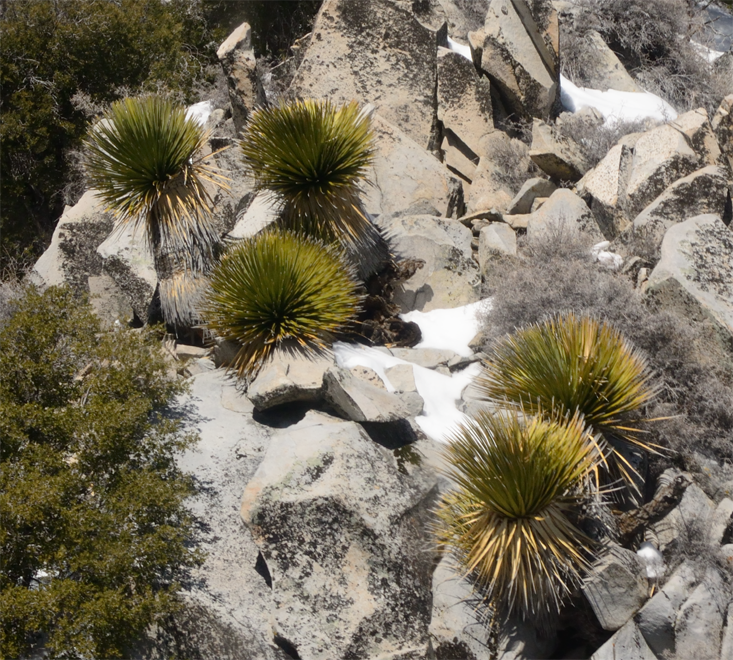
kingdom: Plantae
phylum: Tracheophyta
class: Liliopsida
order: Asparagales
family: Asparagaceae
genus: Nolina
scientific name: Nolina parryi
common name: Parry nolina
